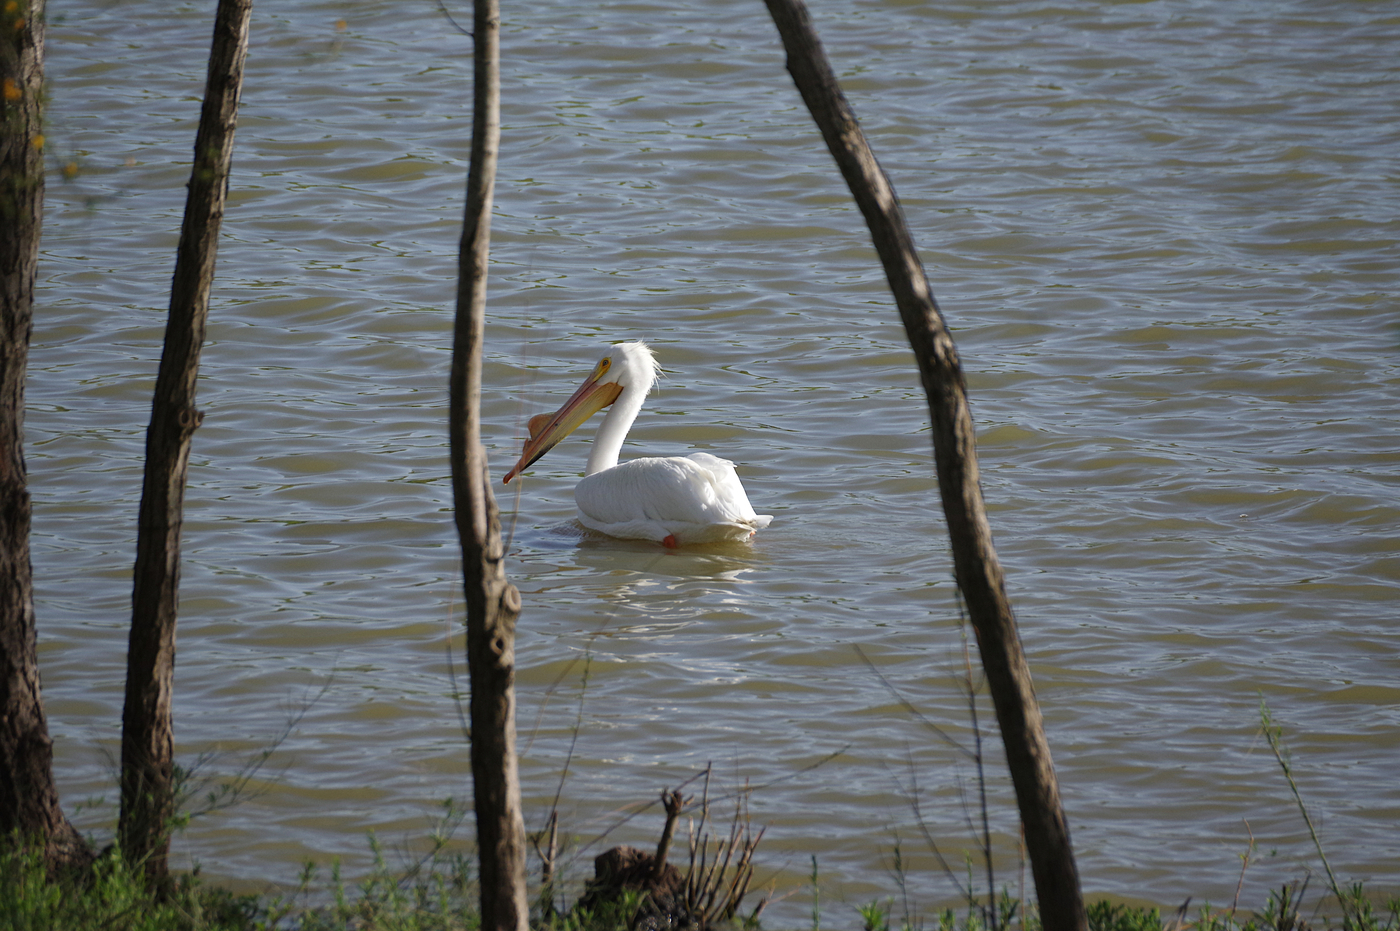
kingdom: Animalia
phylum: Chordata
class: Aves
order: Pelecaniformes
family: Pelecanidae
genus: Pelecanus
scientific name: Pelecanus erythrorhynchos
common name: American white pelican
